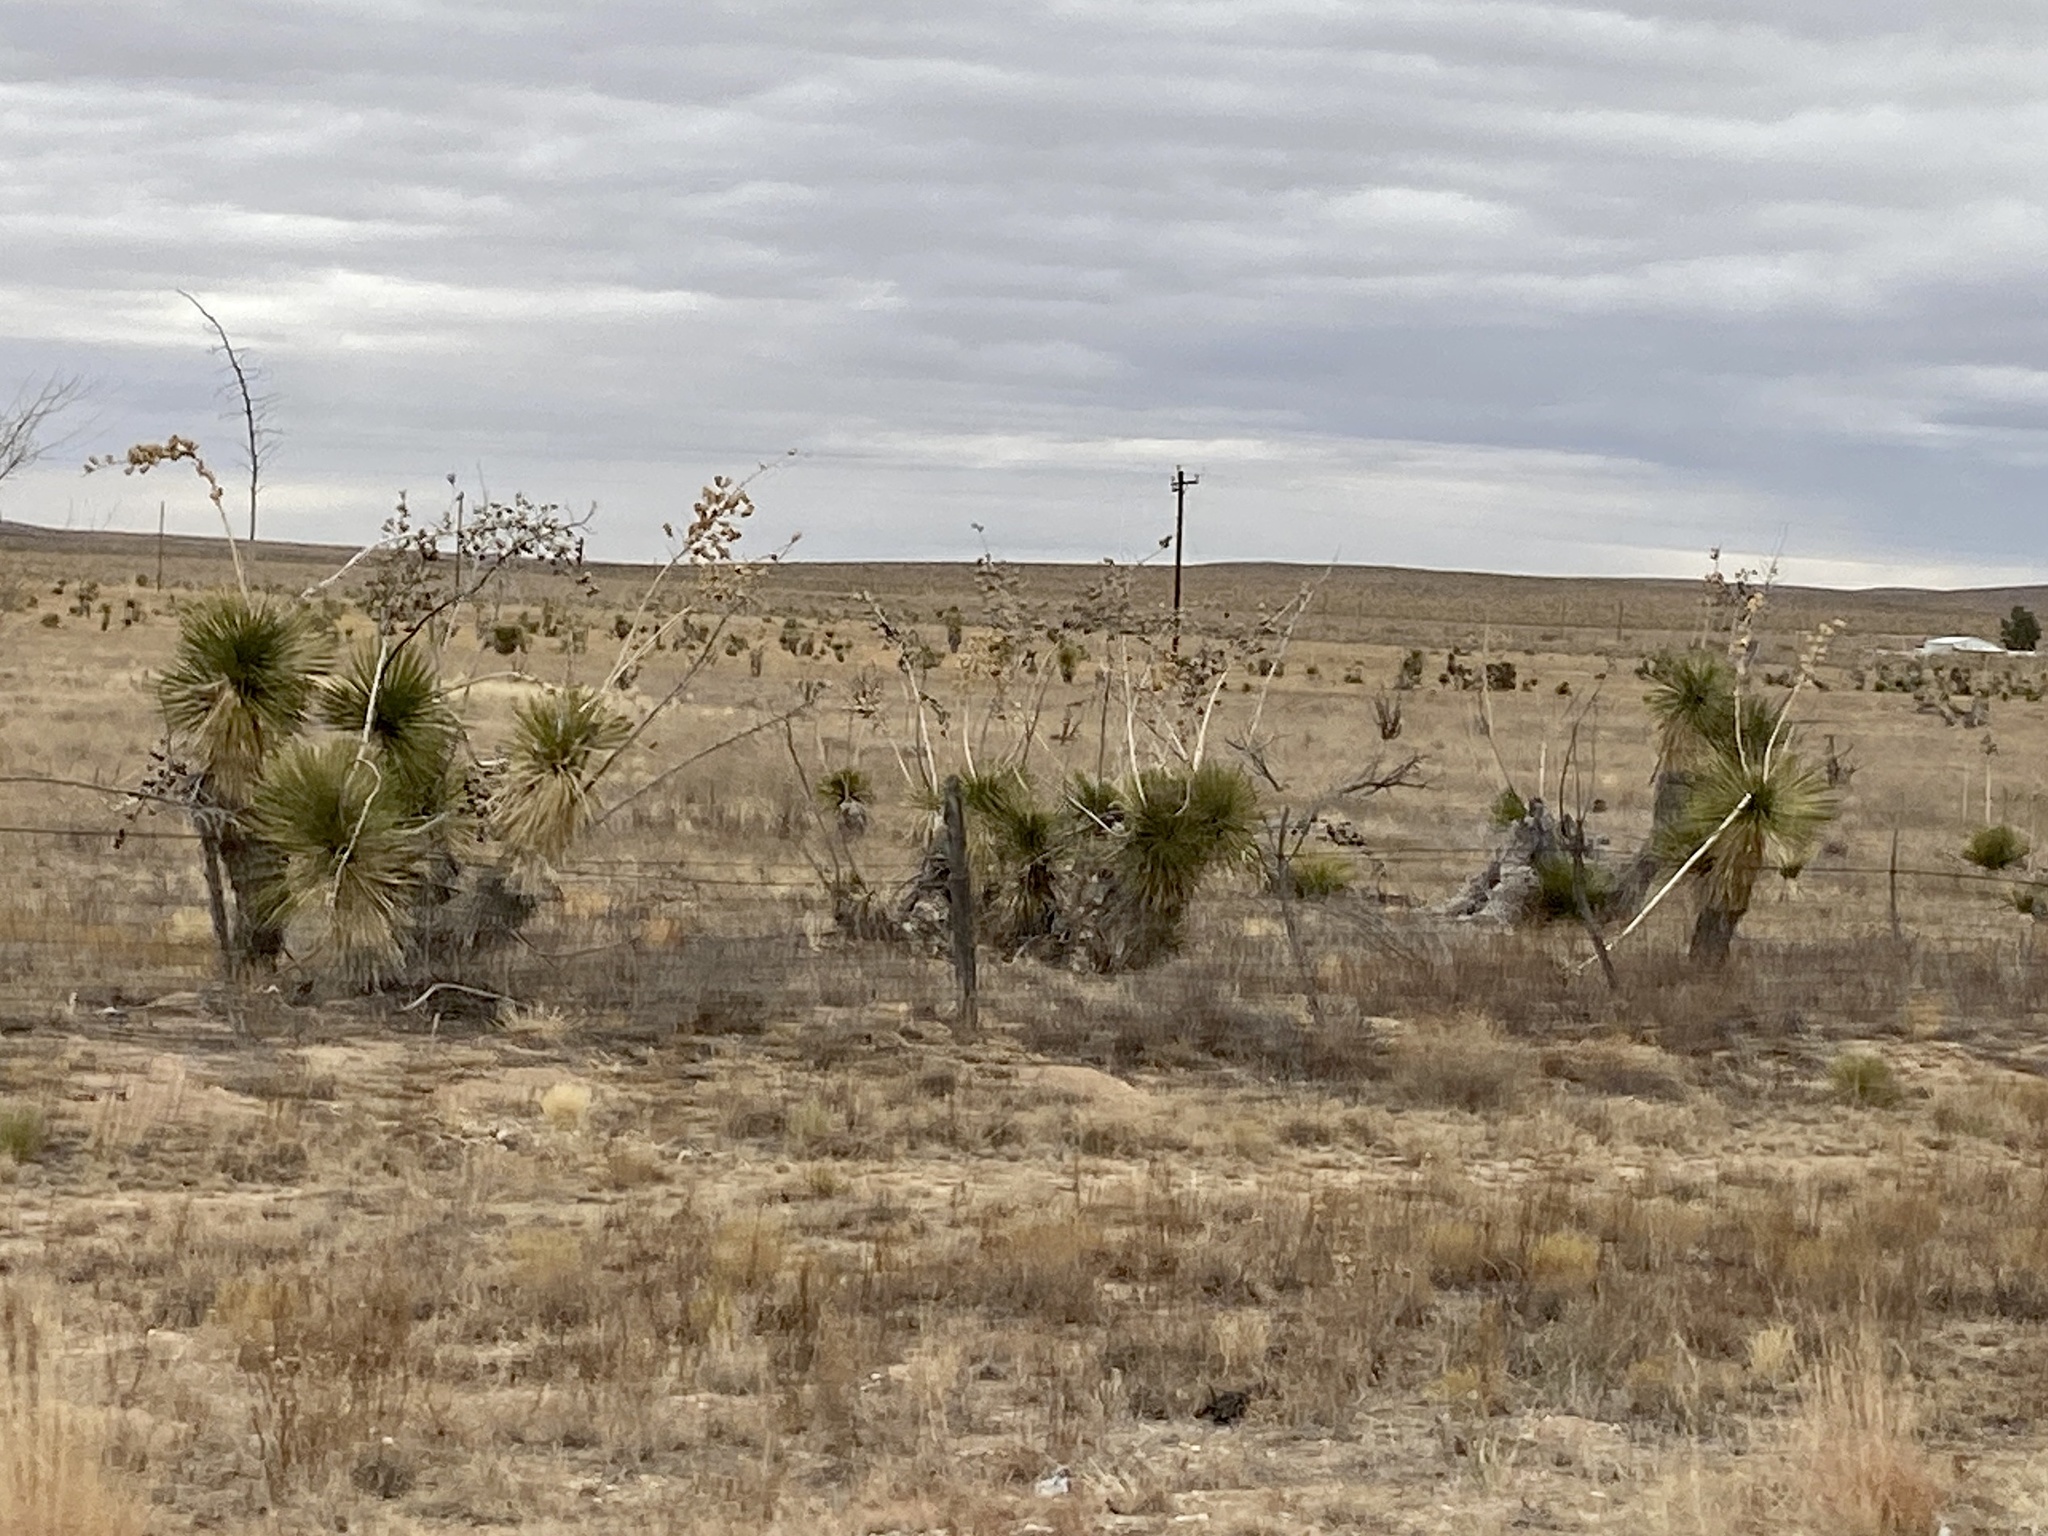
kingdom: Plantae
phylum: Tracheophyta
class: Liliopsida
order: Asparagales
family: Asparagaceae
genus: Yucca
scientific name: Yucca elata
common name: Palmella
